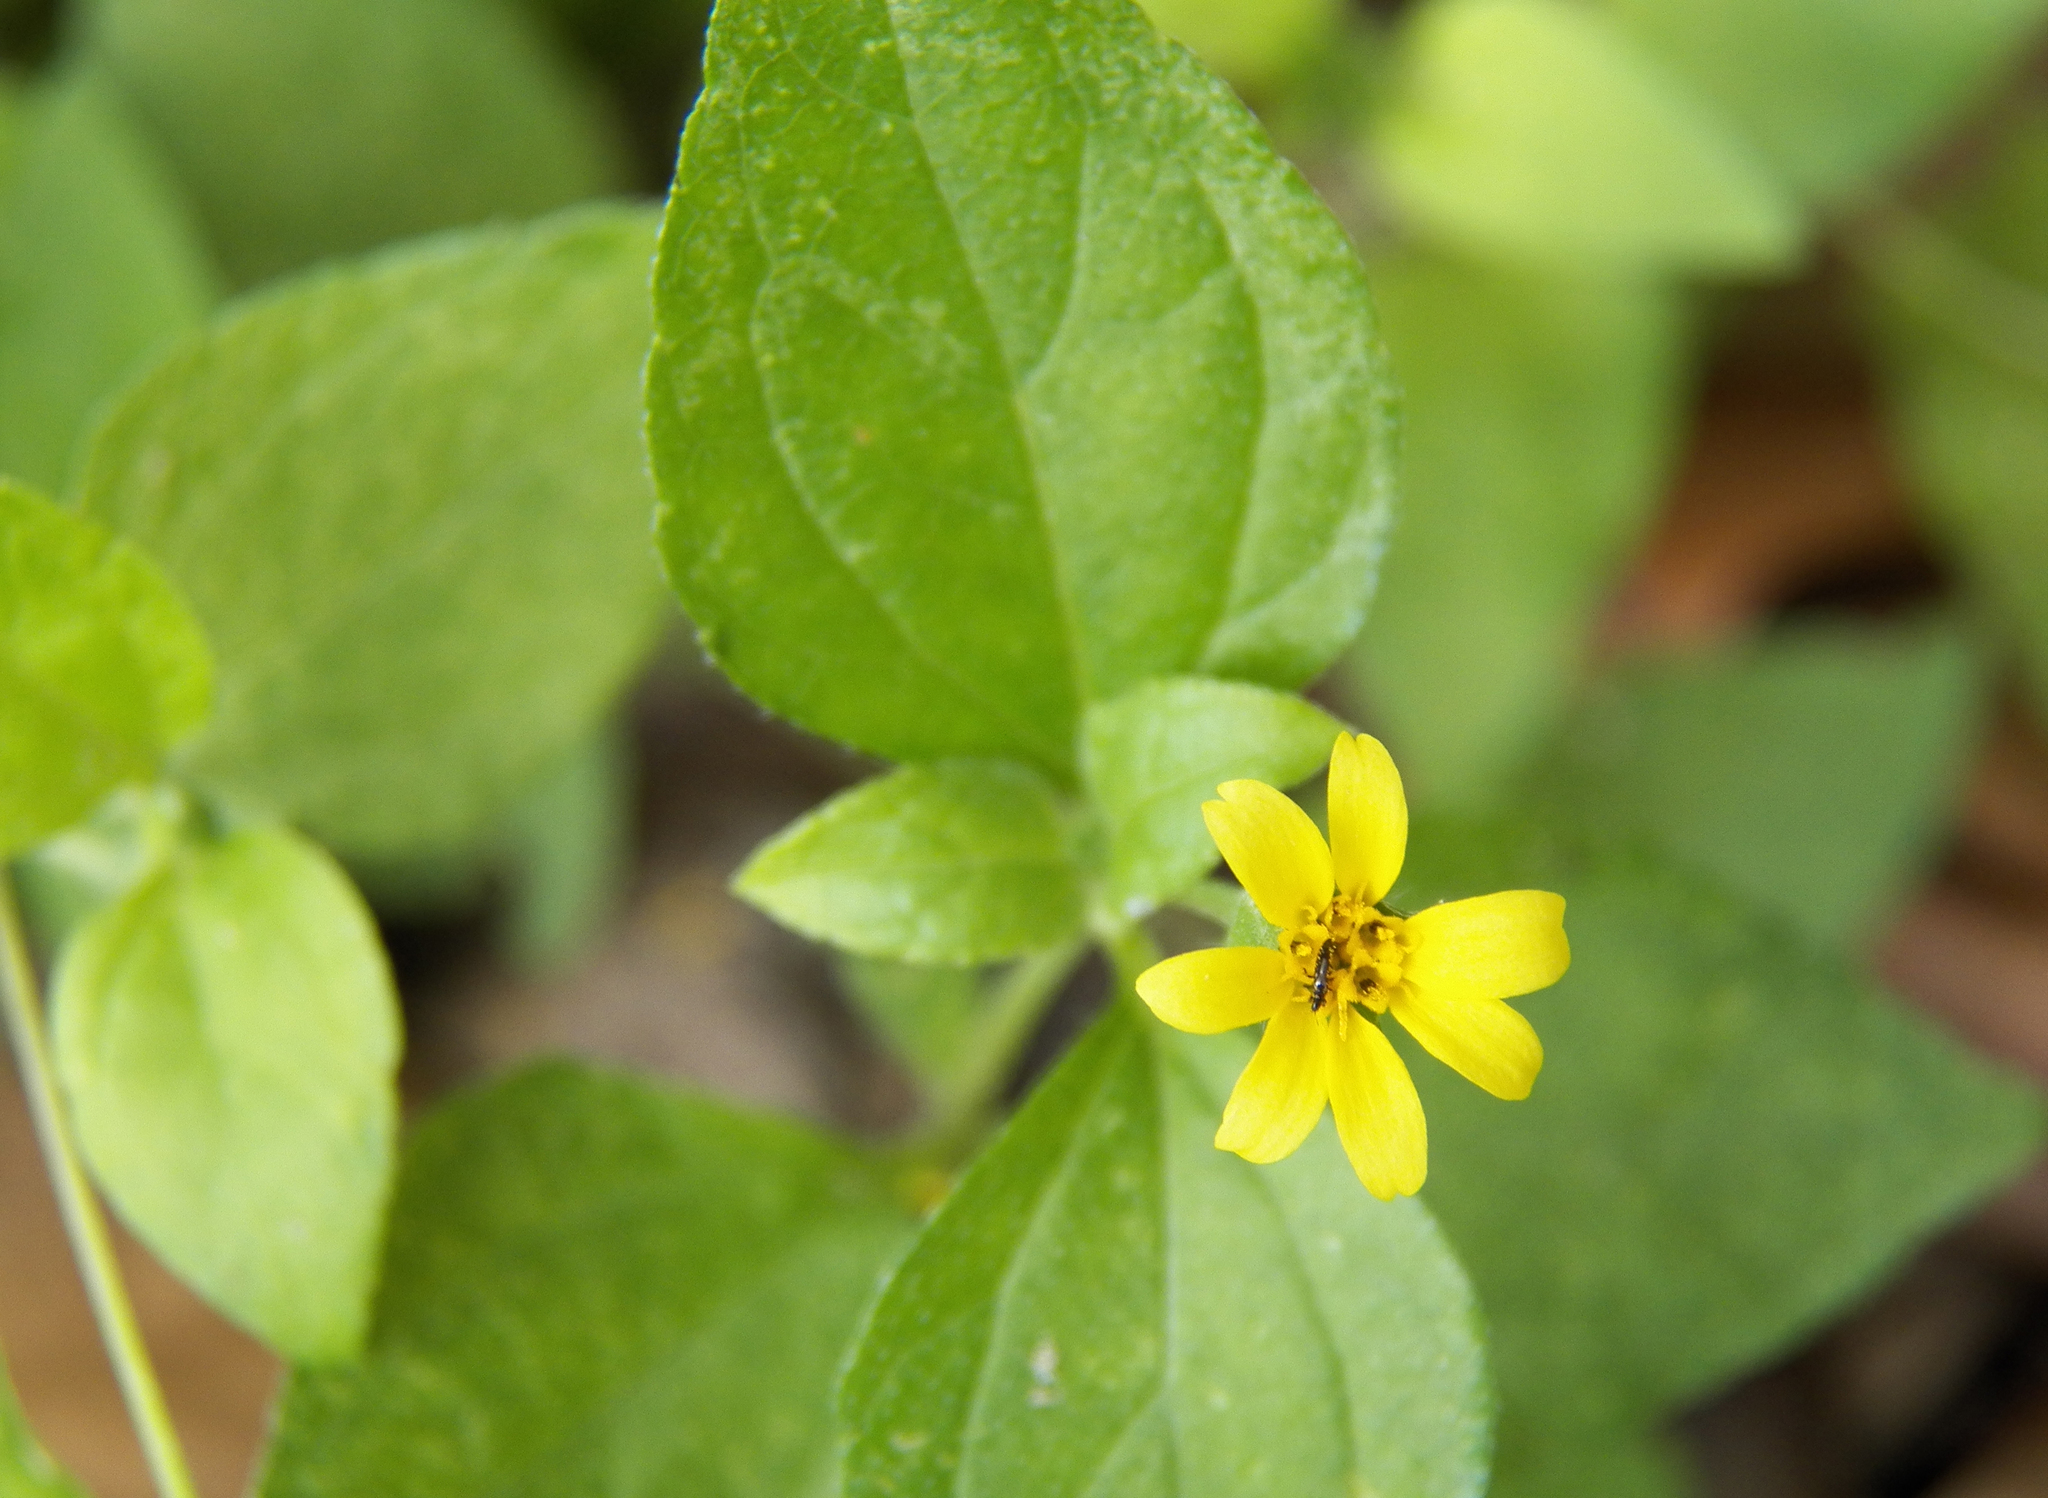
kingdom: Plantae
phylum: Tracheophyta
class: Magnoliopsida
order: Asterales
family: Asteraceae
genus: Calyptocarpus
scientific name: Calyptocarpus vialis
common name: Straggler daisy
